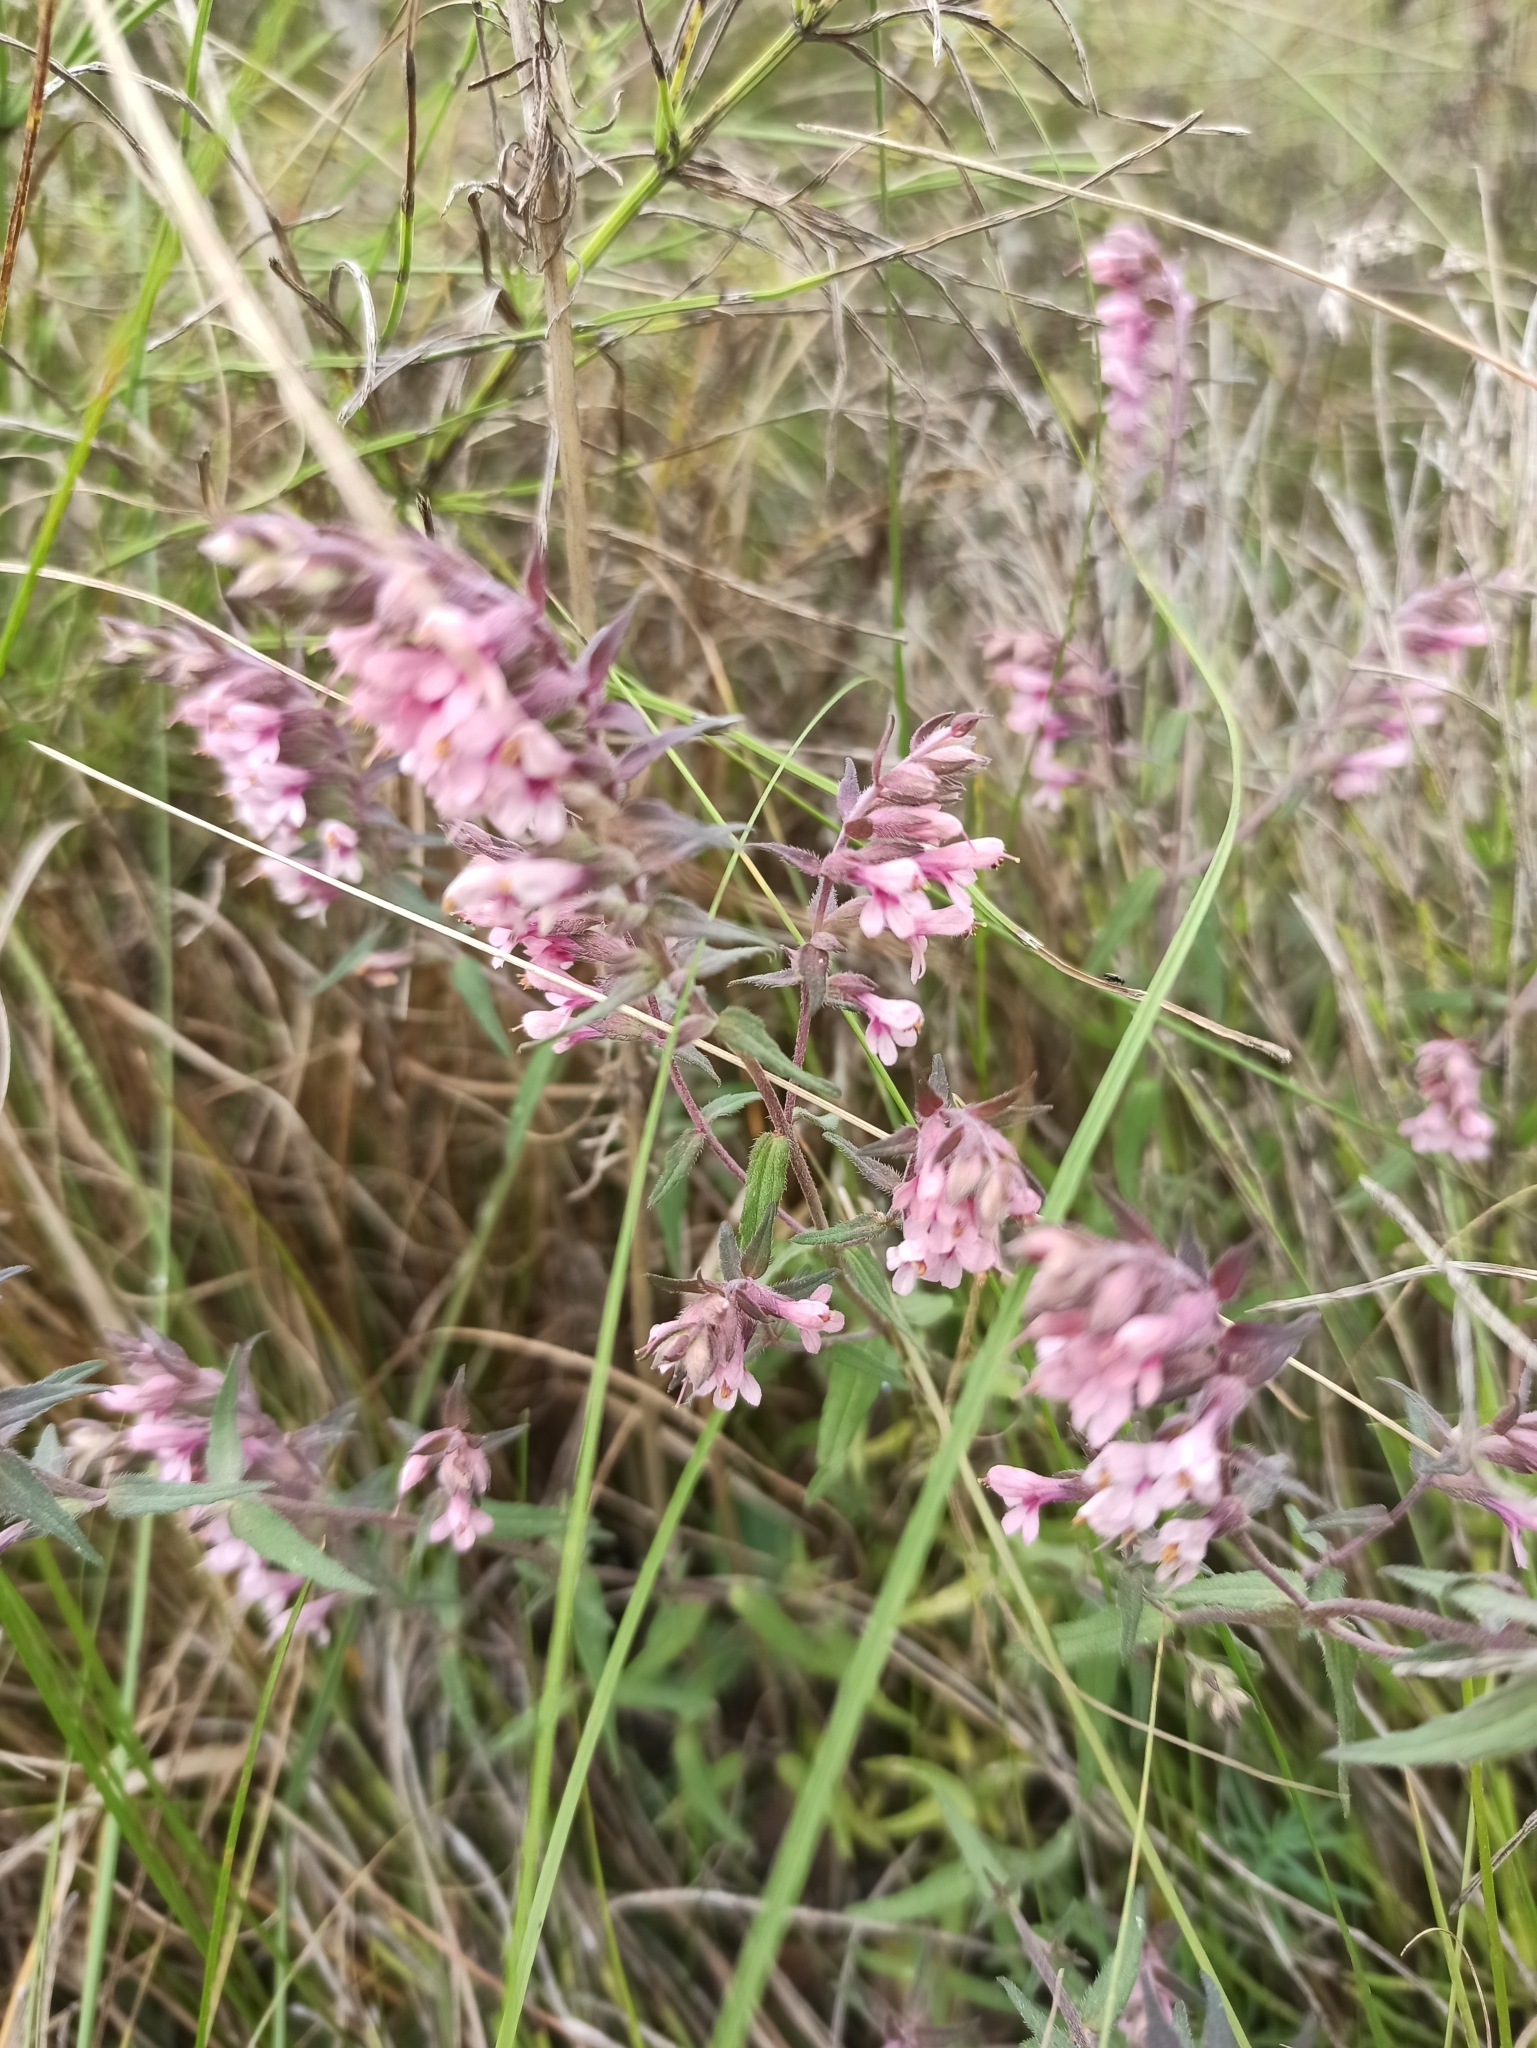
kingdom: Plantae
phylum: Tracheophyta
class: Magnoliopsida
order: Lamiales
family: Orobanchaceae
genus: Odontites
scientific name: Odontites vulgaris
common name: Broomrape
